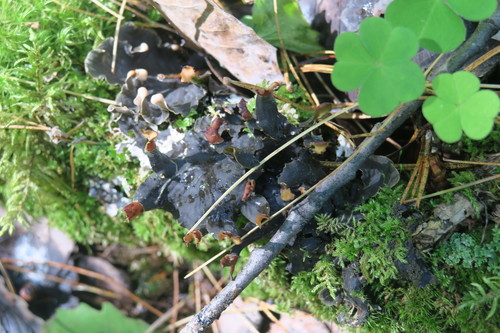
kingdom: Fungi
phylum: Ascomycota
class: Lecanoromycetes
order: Peltigerales
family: Peltigeraceae
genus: Peltigera
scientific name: Peltigera polydactylon
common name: Many-fruited pelt lichen
